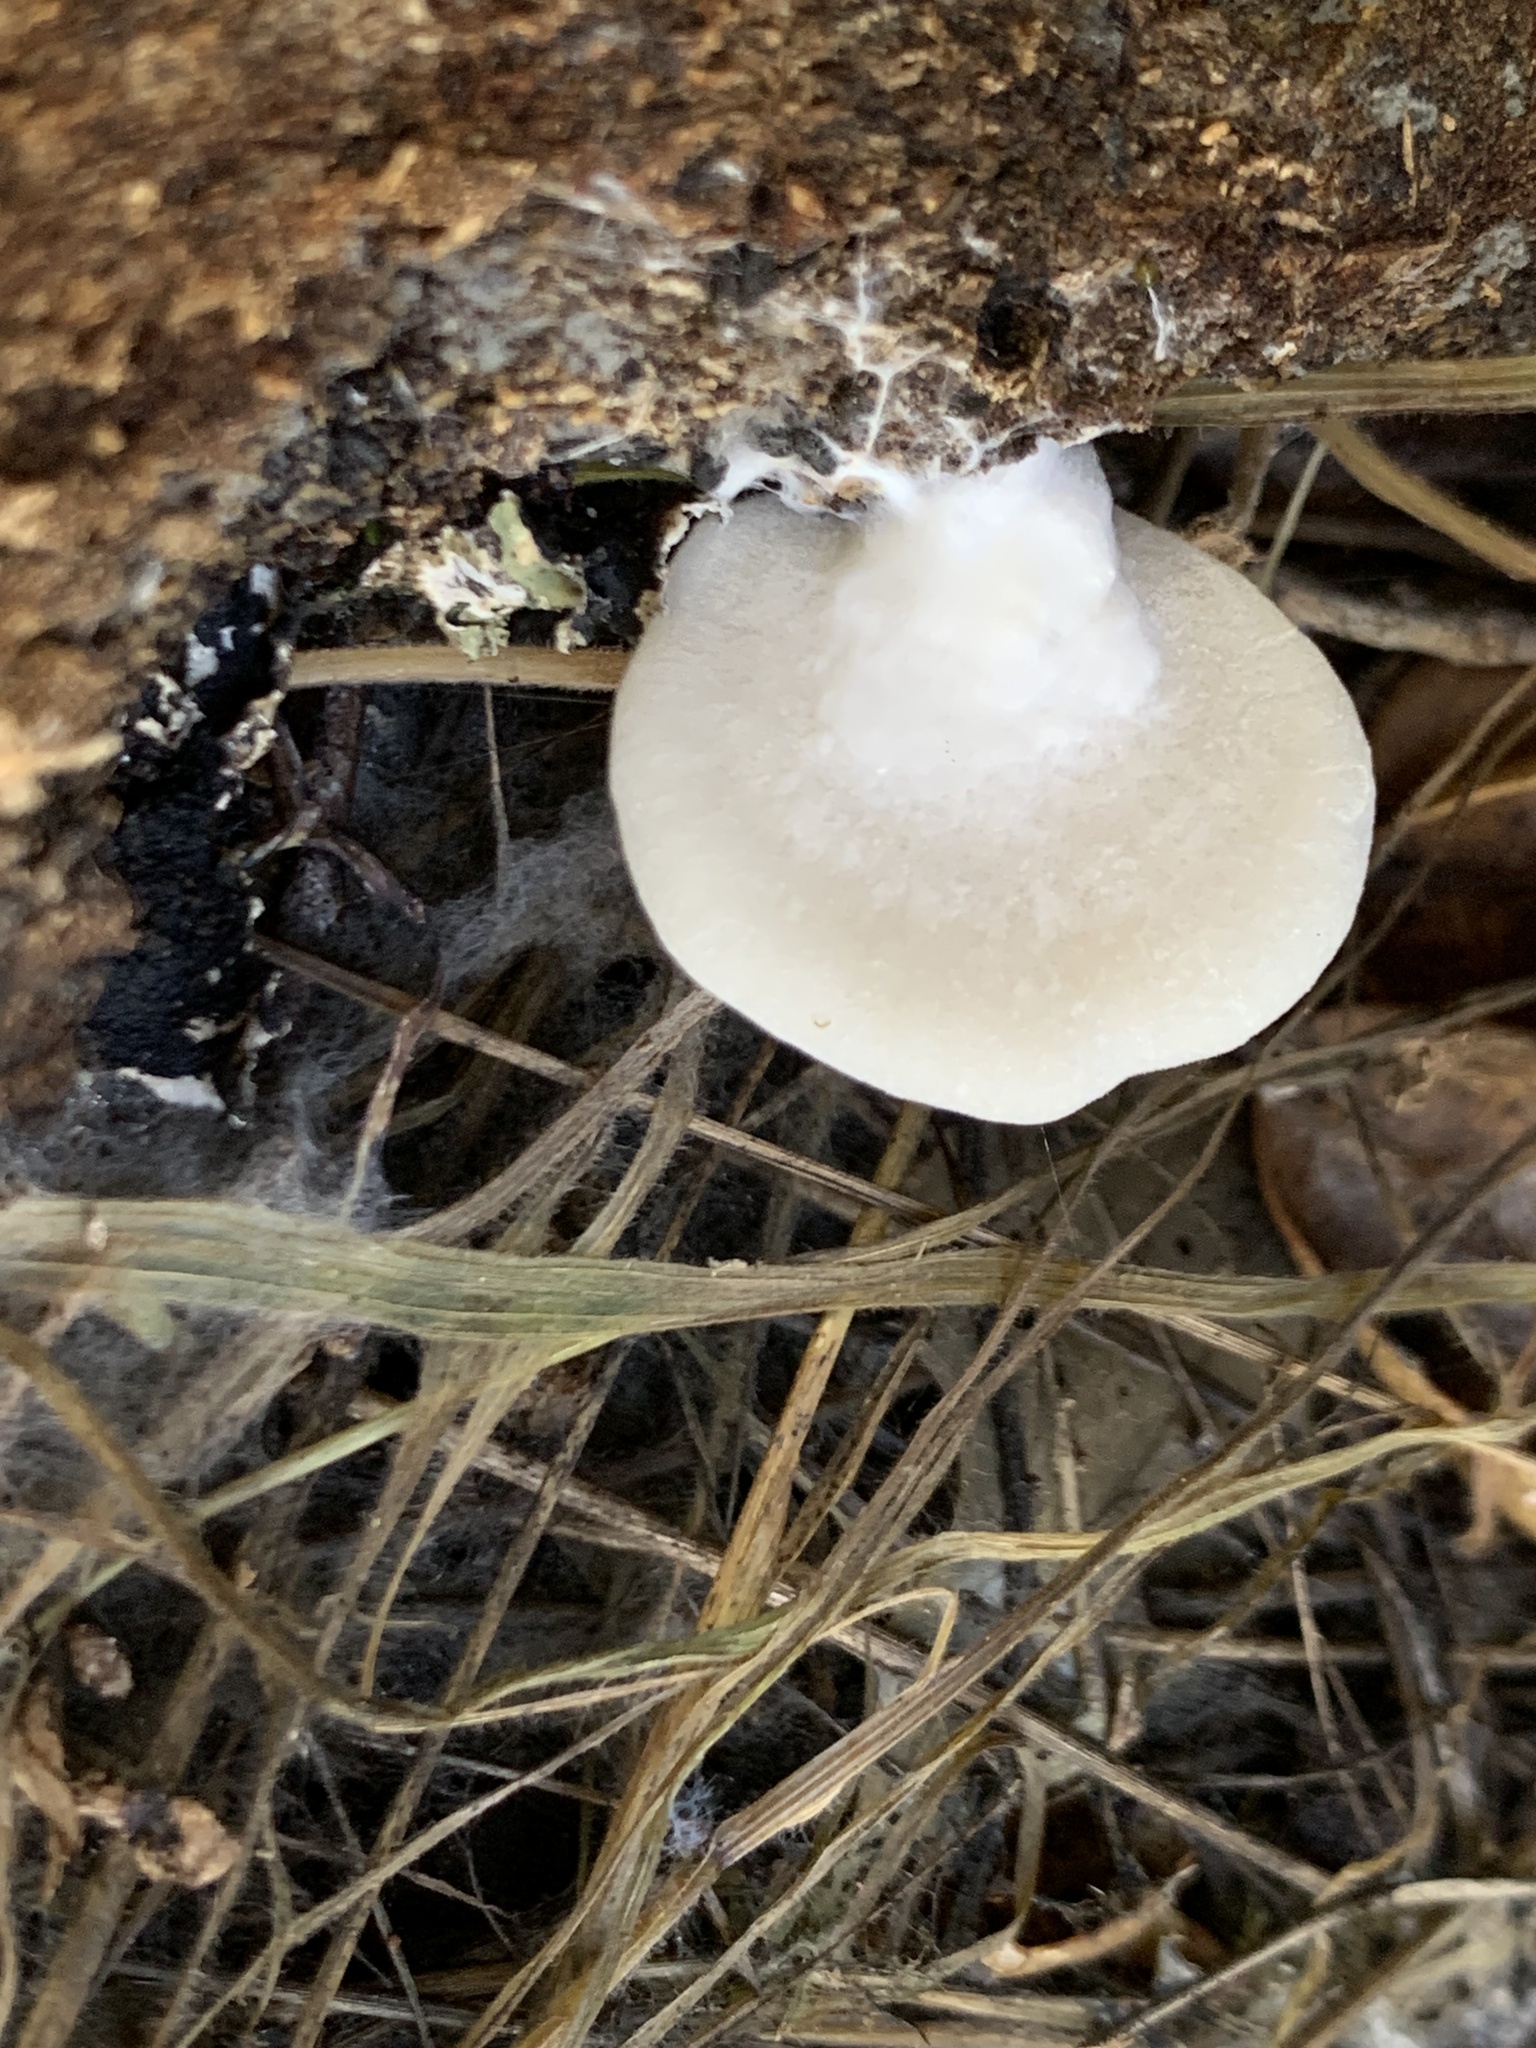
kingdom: Fungi
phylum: Basidiomycota
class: Agaricomycetes
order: Agaricales
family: Crepidotaceae
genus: Crepidotus
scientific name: Crepidotus applanatus
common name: Flat crep
